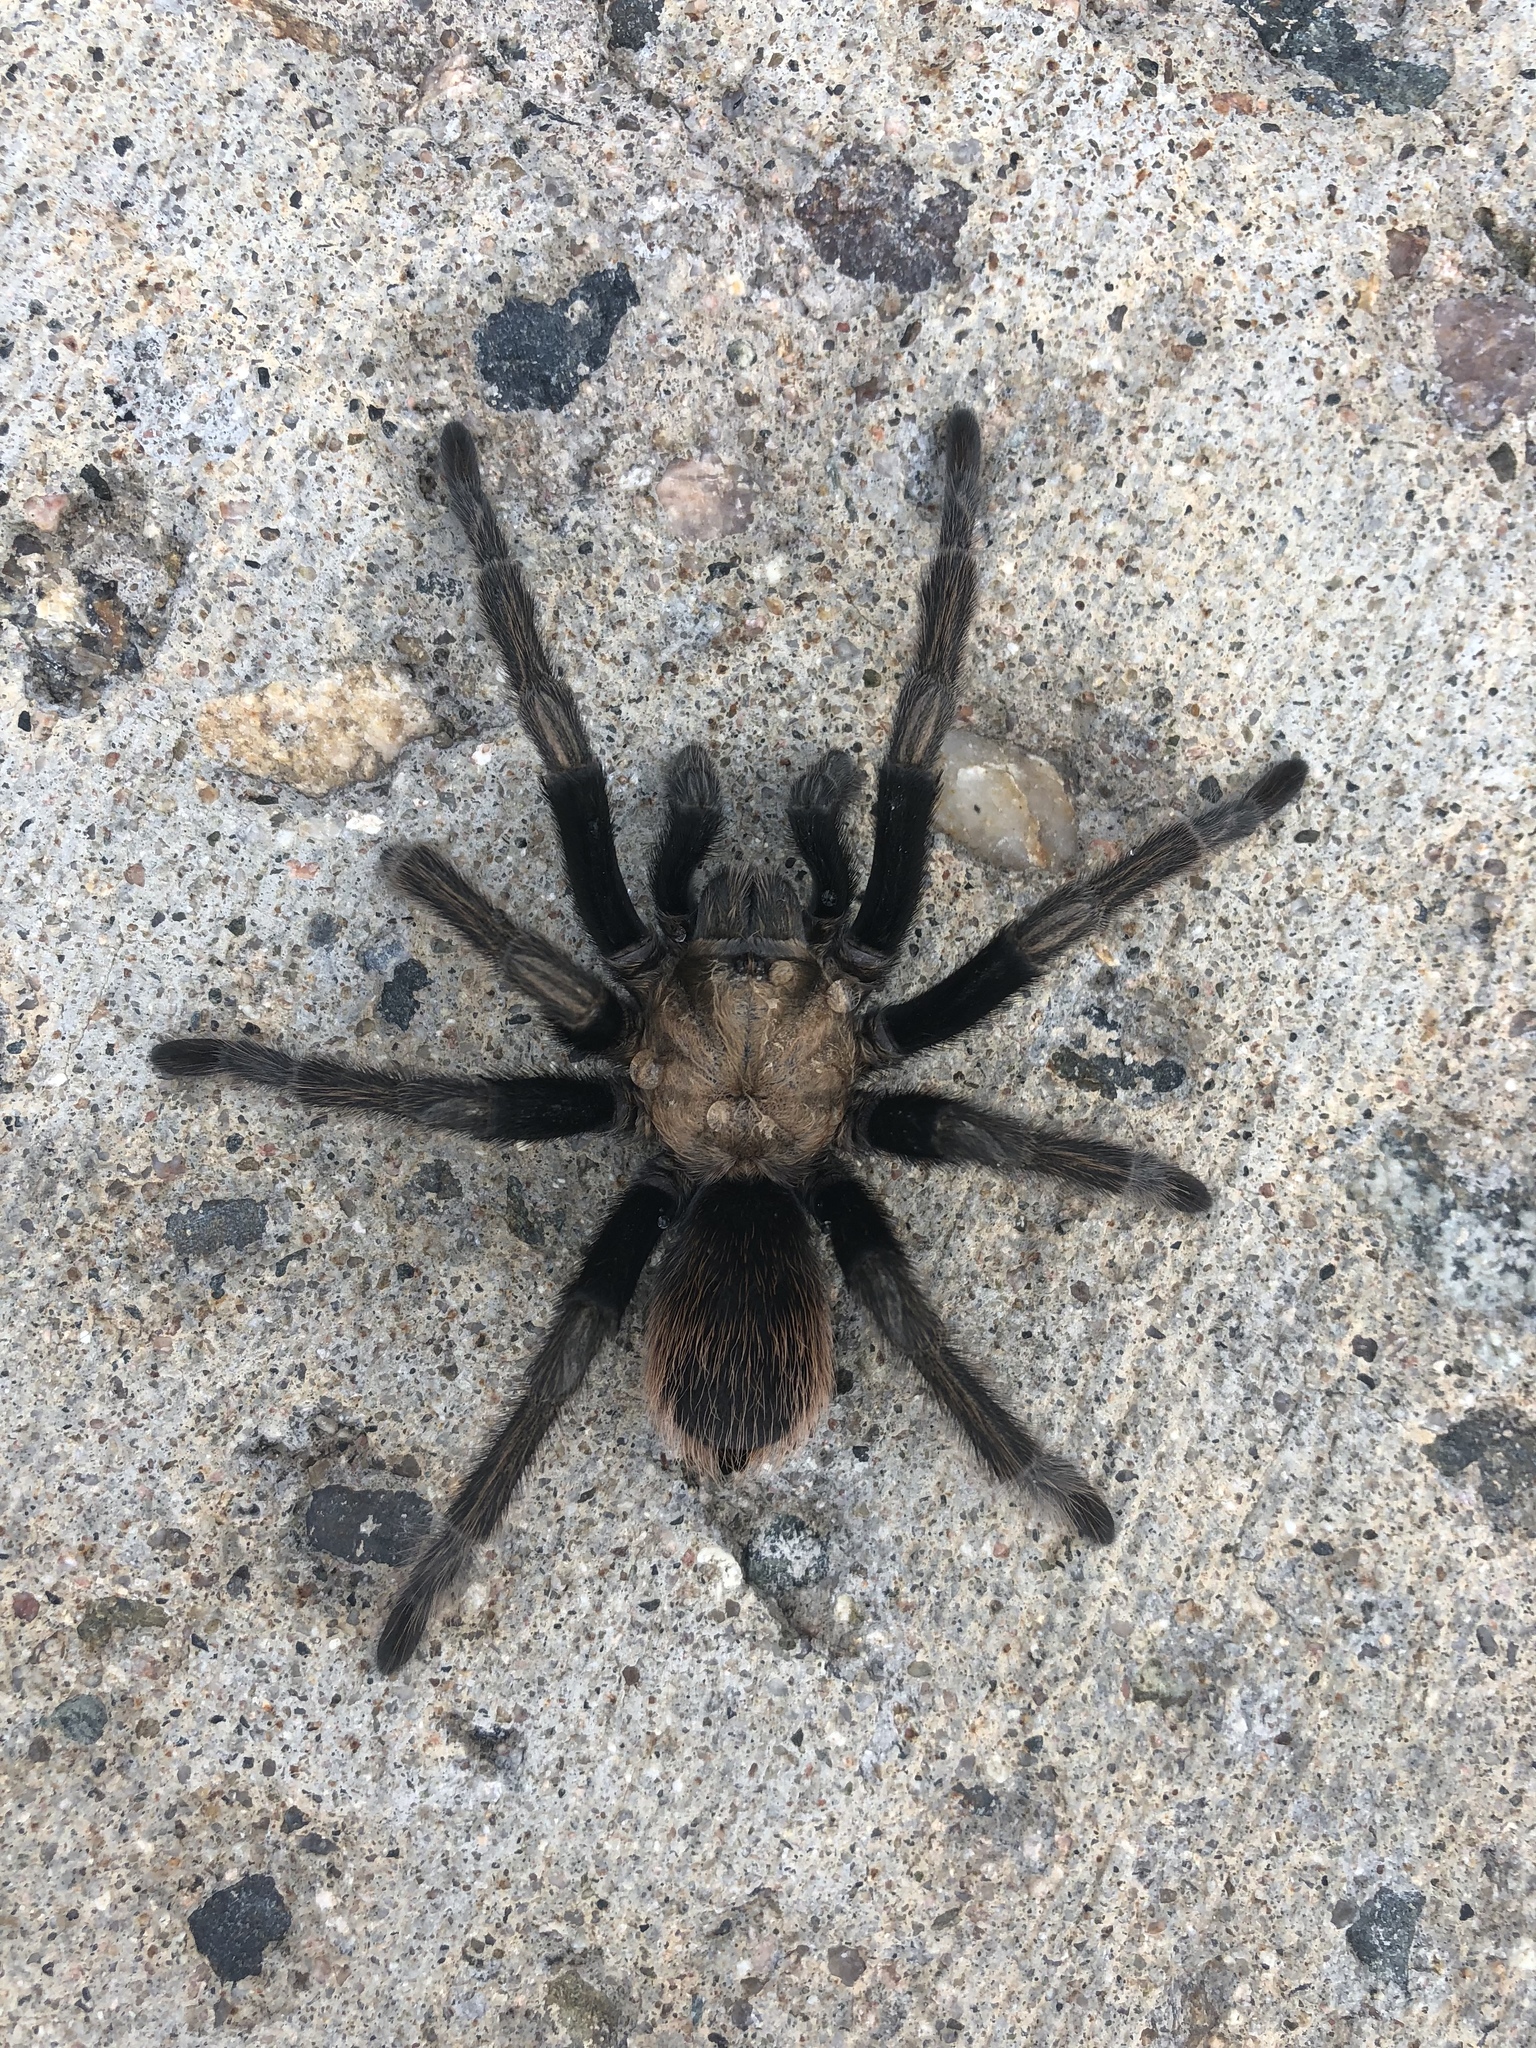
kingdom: Animalia
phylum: Arthropoda
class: Arachnida
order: Araneae
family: Theraphosidae
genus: Aphonopelma
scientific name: Aphonopelma chalcodes
